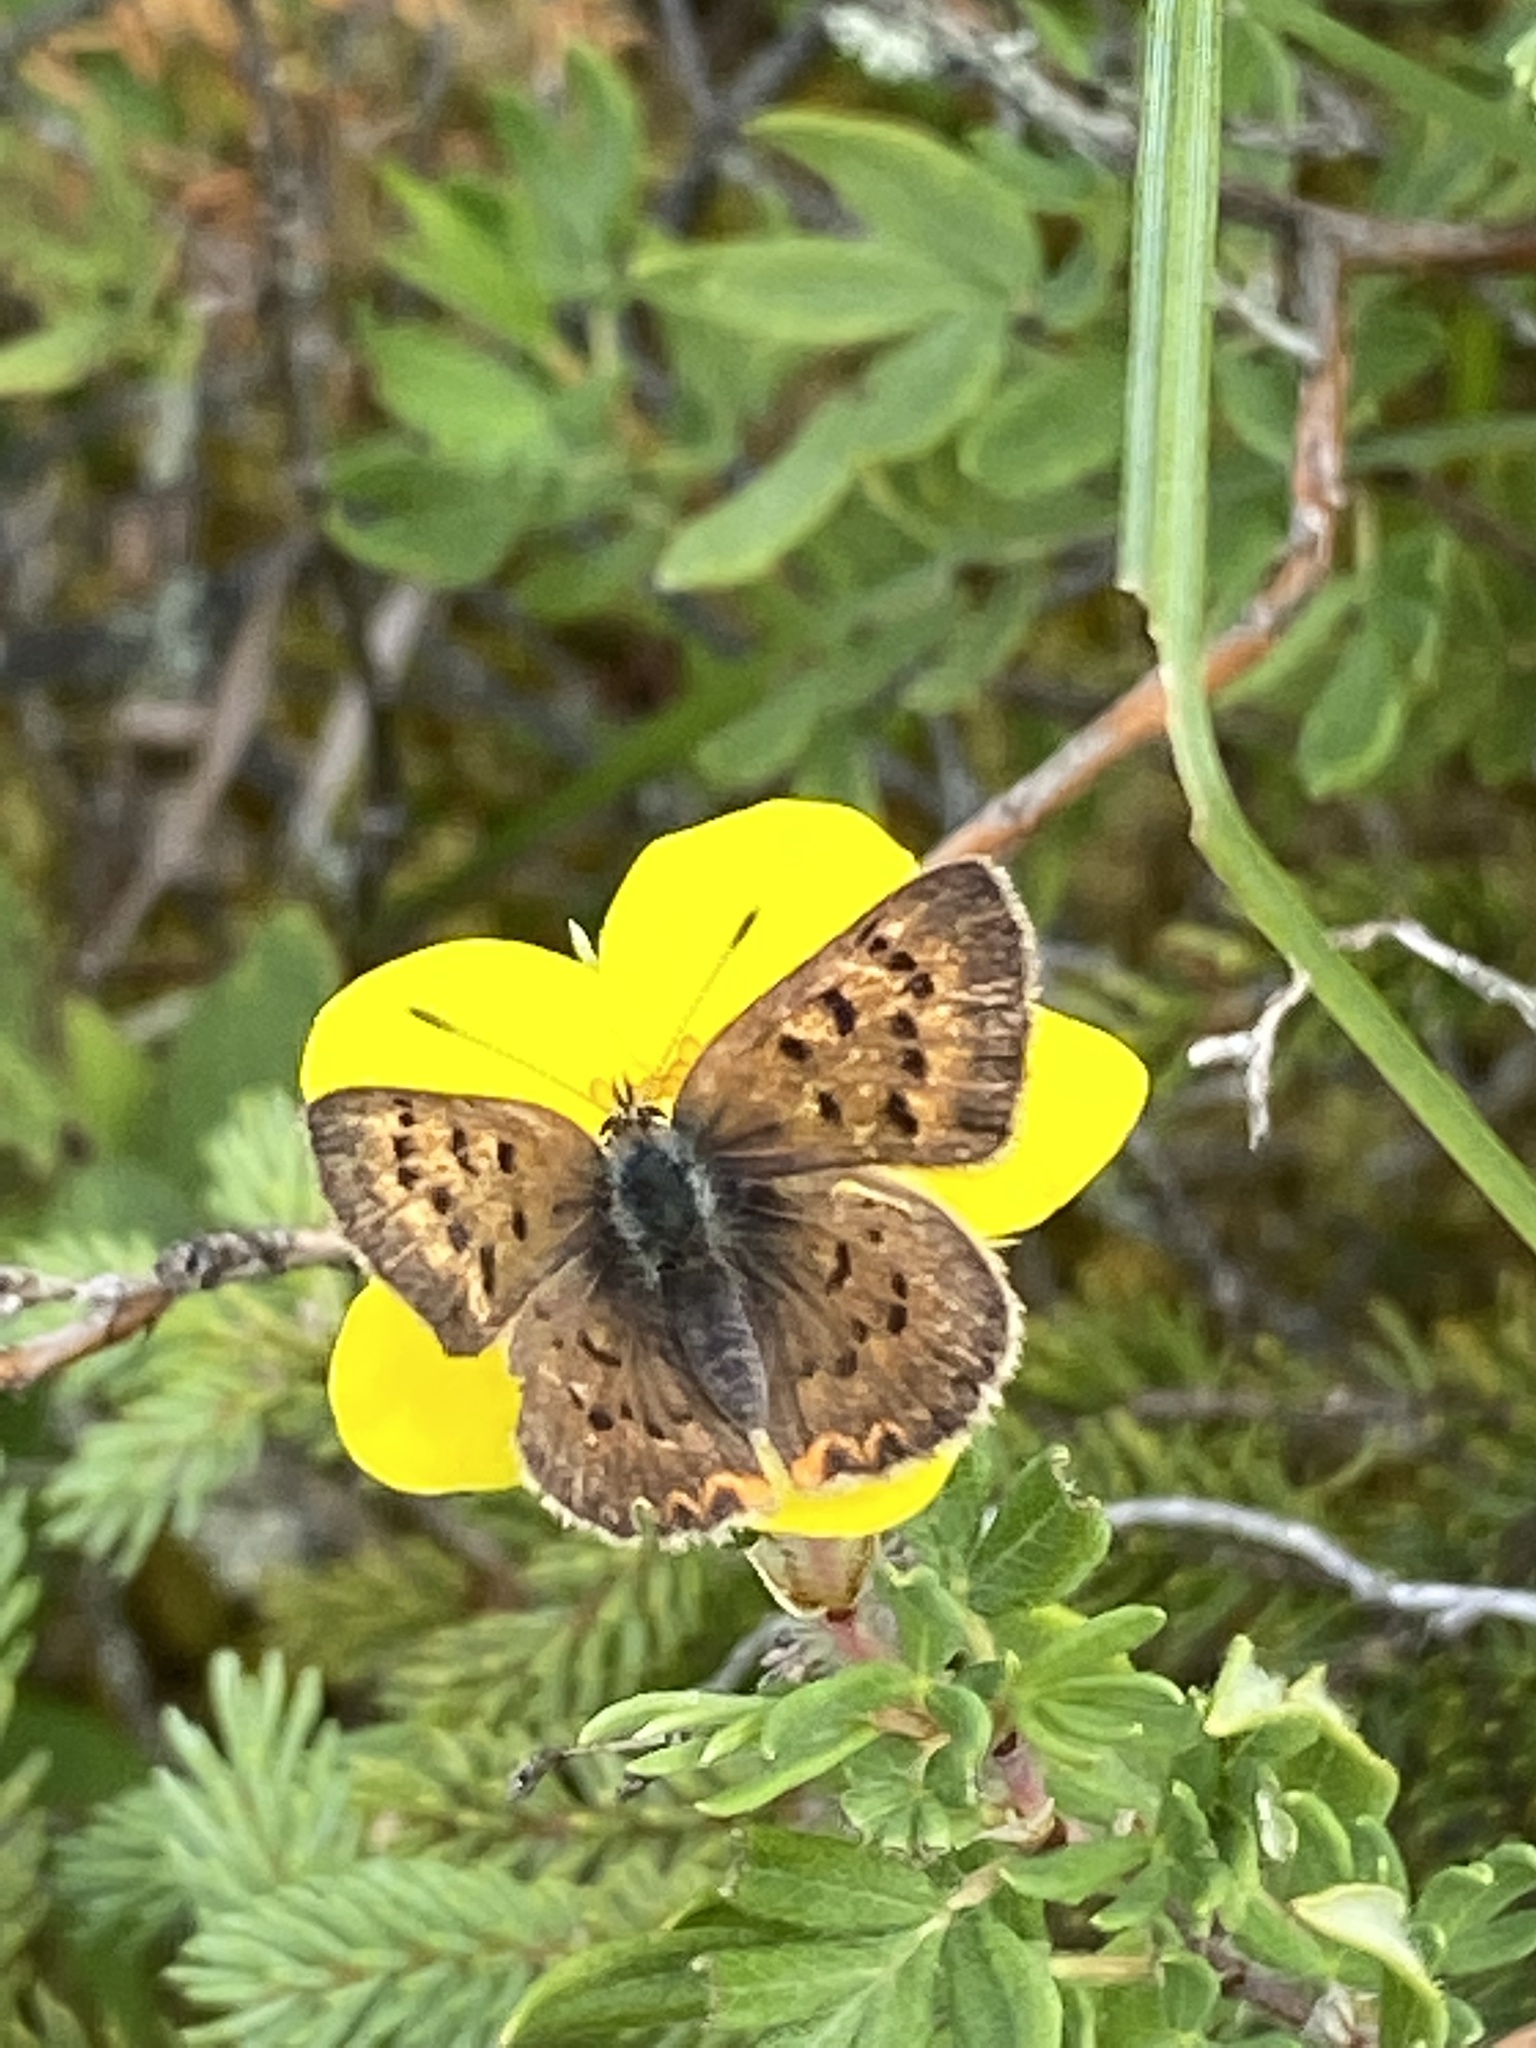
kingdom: Animalia
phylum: Arthropoda
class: Insecta
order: Lepidoptera
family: Lycaenidae
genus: Tharsalea
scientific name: Tharsalea dorcas
